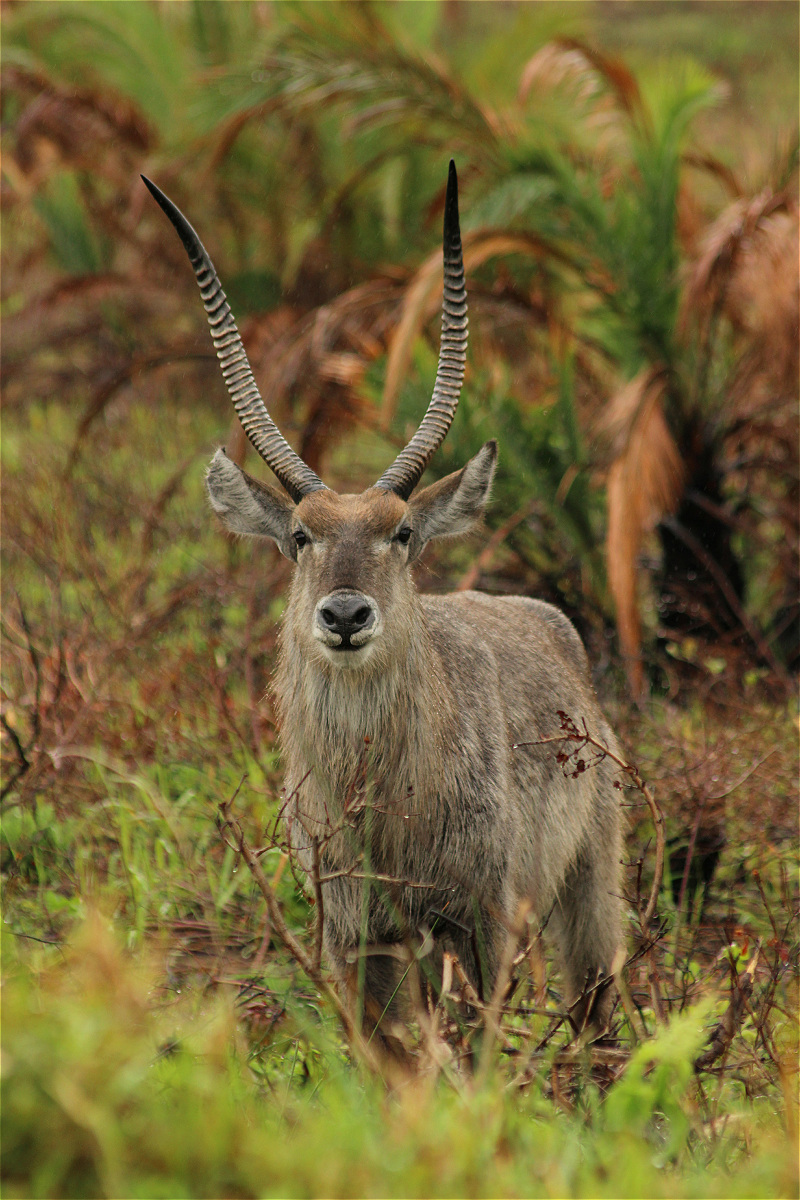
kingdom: Animalia
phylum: Chordata
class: Mammalia
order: Artiodactyla
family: Bovidae
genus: Kobus
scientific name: Kobus ellipsiprymnus
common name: Waterbuck
